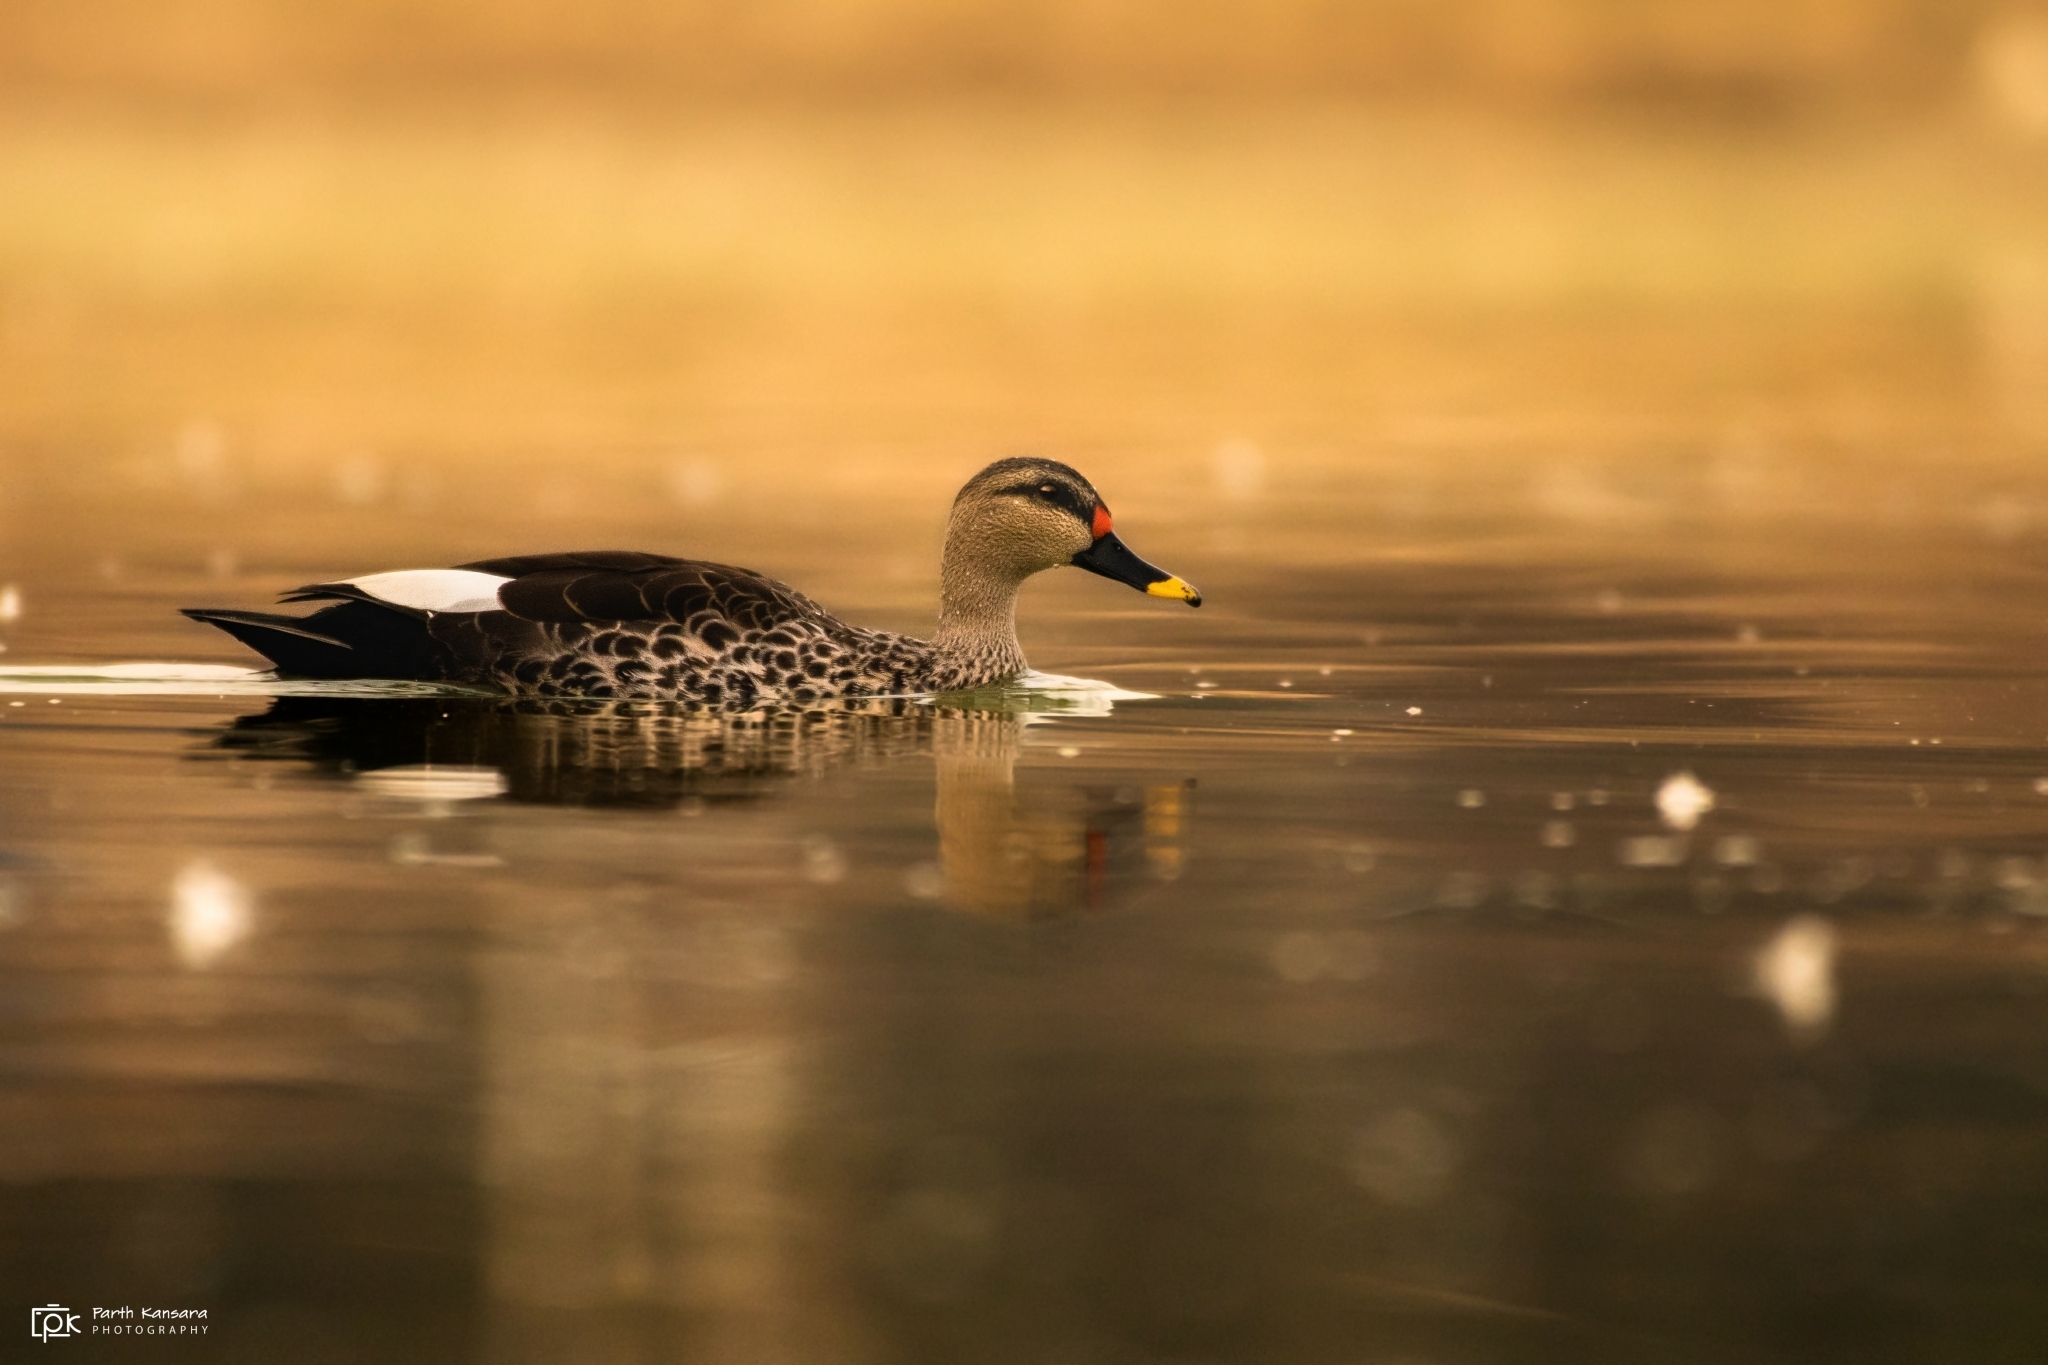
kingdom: Animalia
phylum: Chordata
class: Aves
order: Anseriformes
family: Anatidae
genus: Anas
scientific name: Anas poecilorhyncha
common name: Indian spot-billed duck
